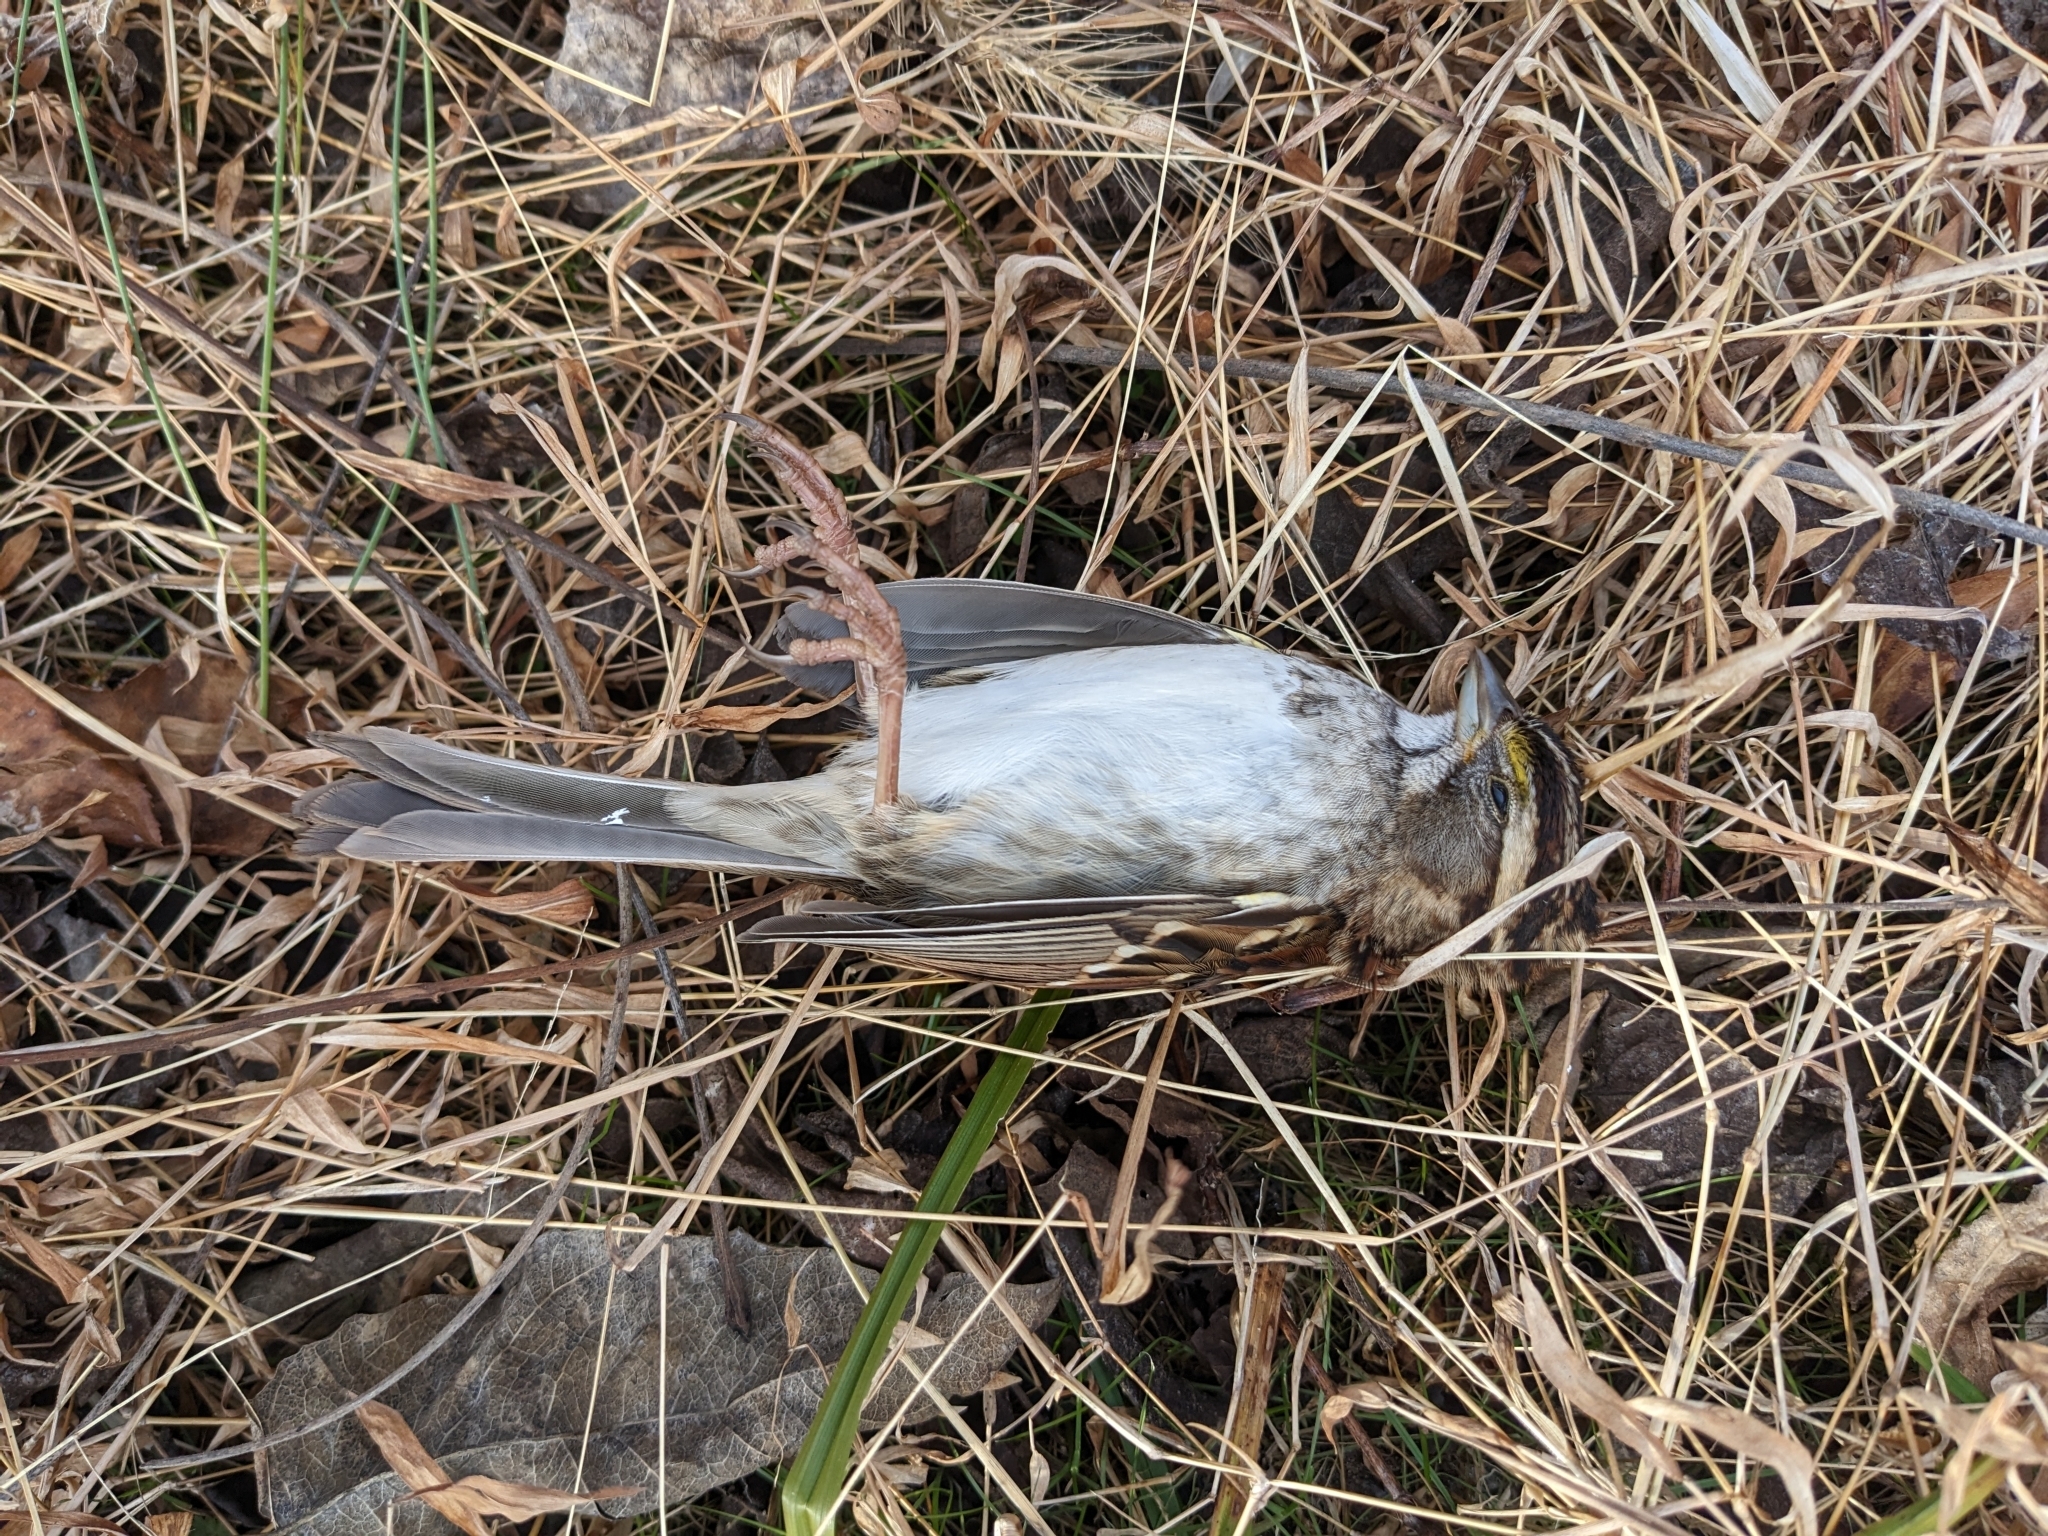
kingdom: Animalia
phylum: Chordata
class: Aves
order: Passeriformes
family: Passerellidae
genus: Zonotrichia
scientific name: Zonotrichia albicollis
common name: White-throated sparrow
